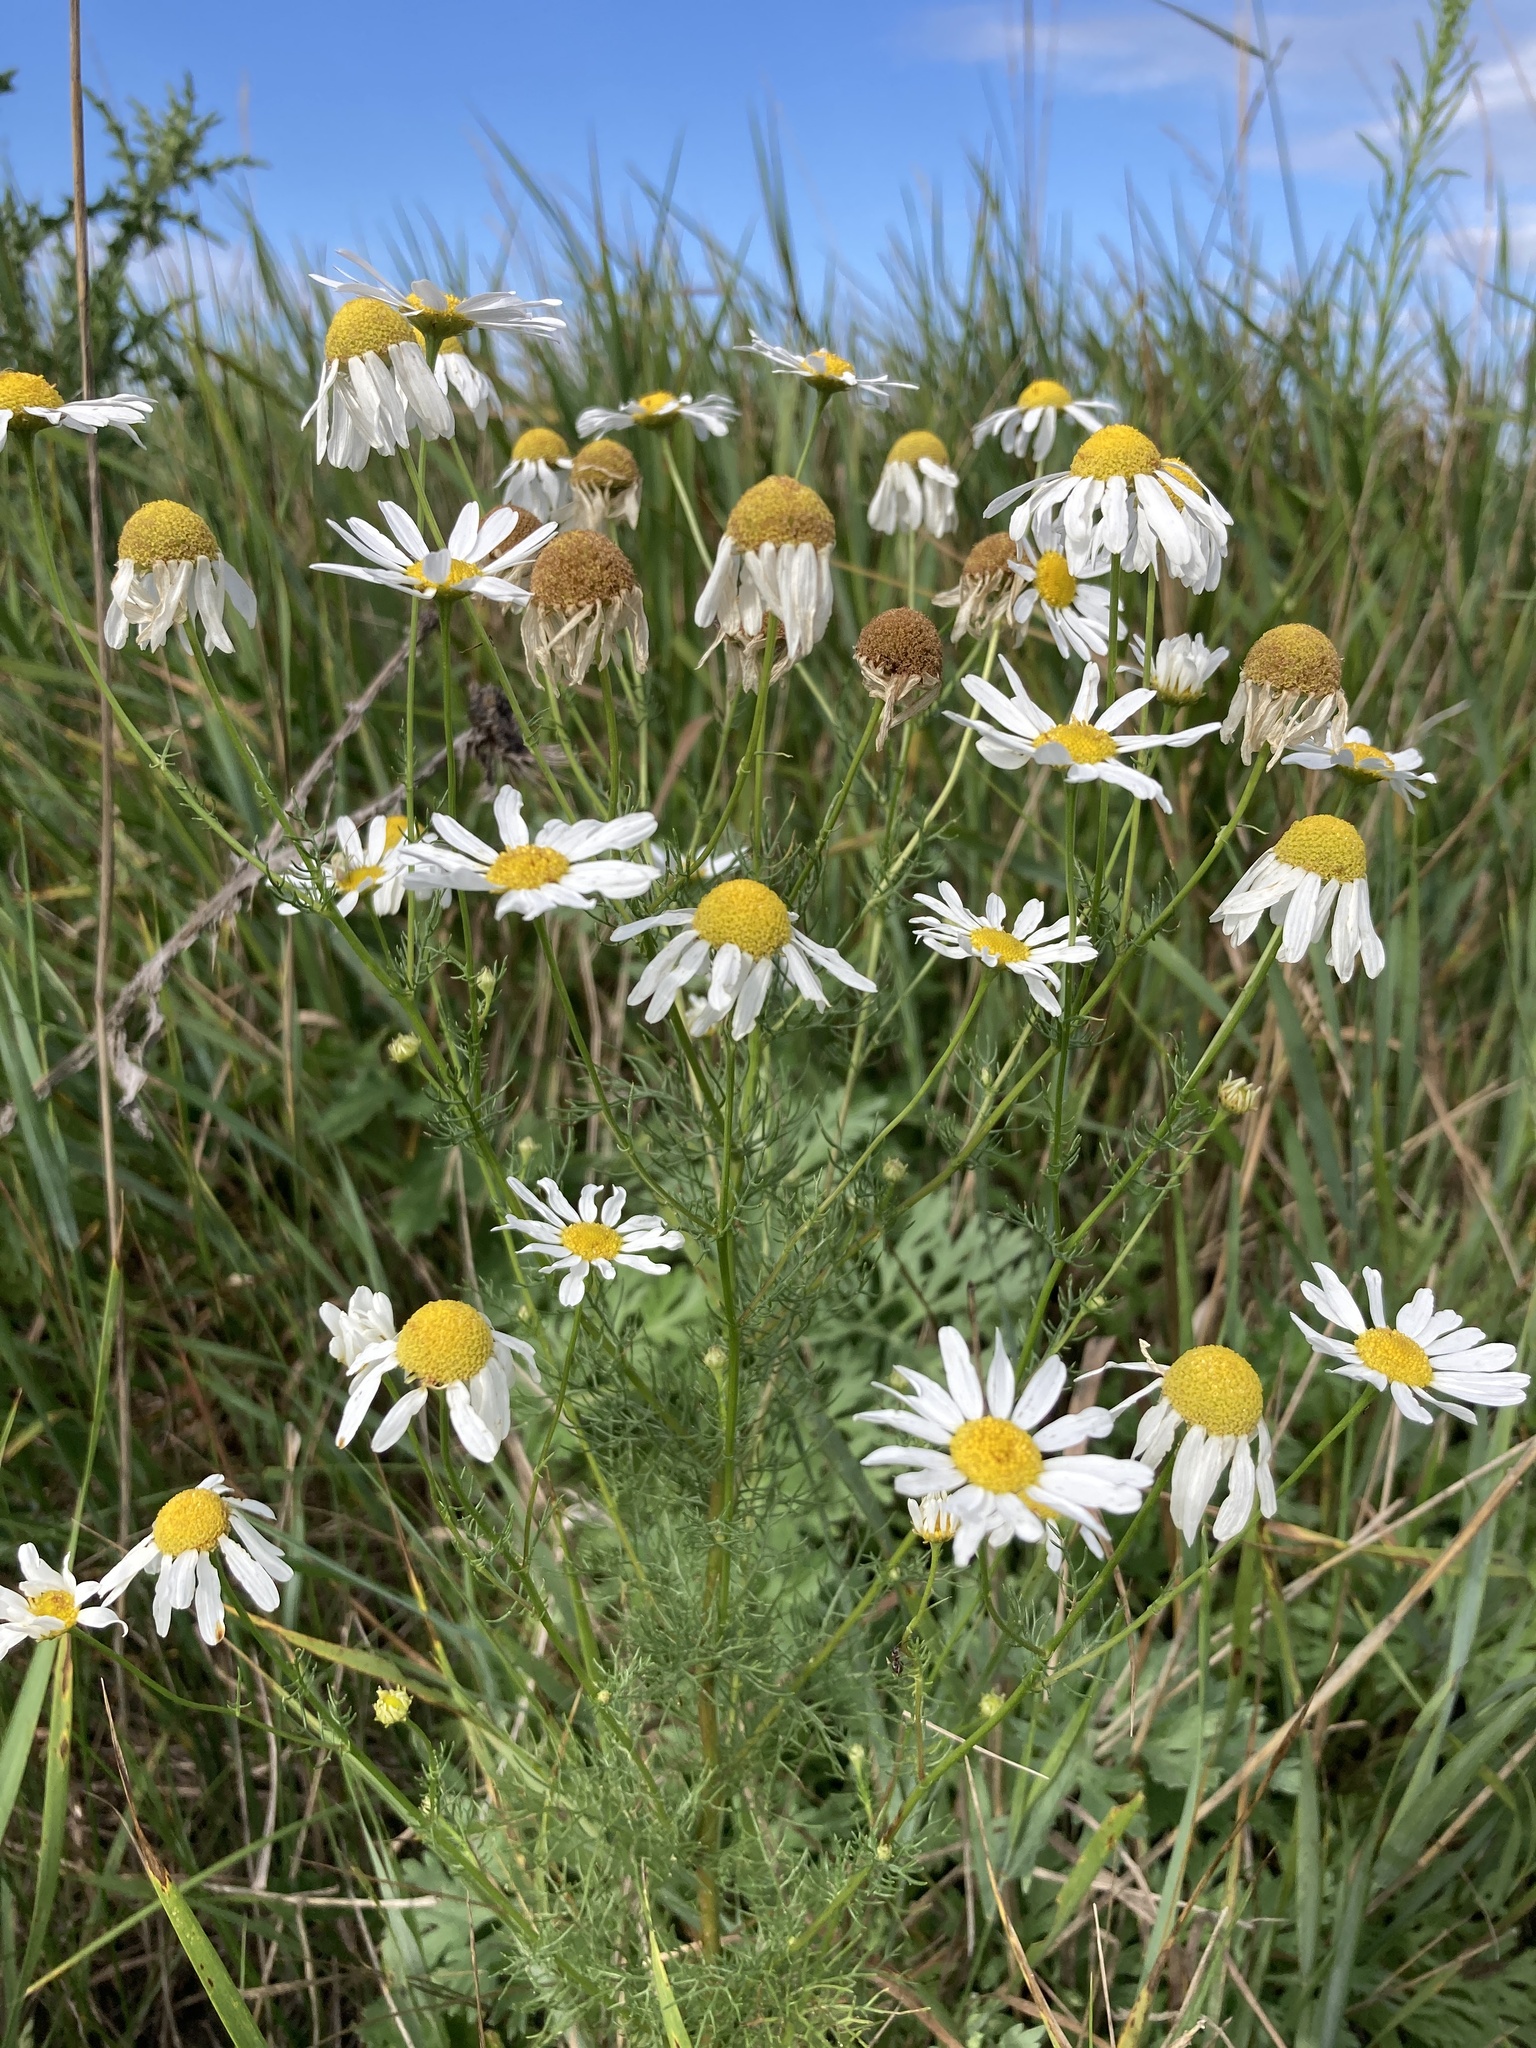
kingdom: Plantae
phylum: Tracheophyta
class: Magnoliopsida
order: Asterales
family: Asteraceae
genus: Tripleurospermum
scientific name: Tripleurospermum inodorum
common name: Scentless mayweed
